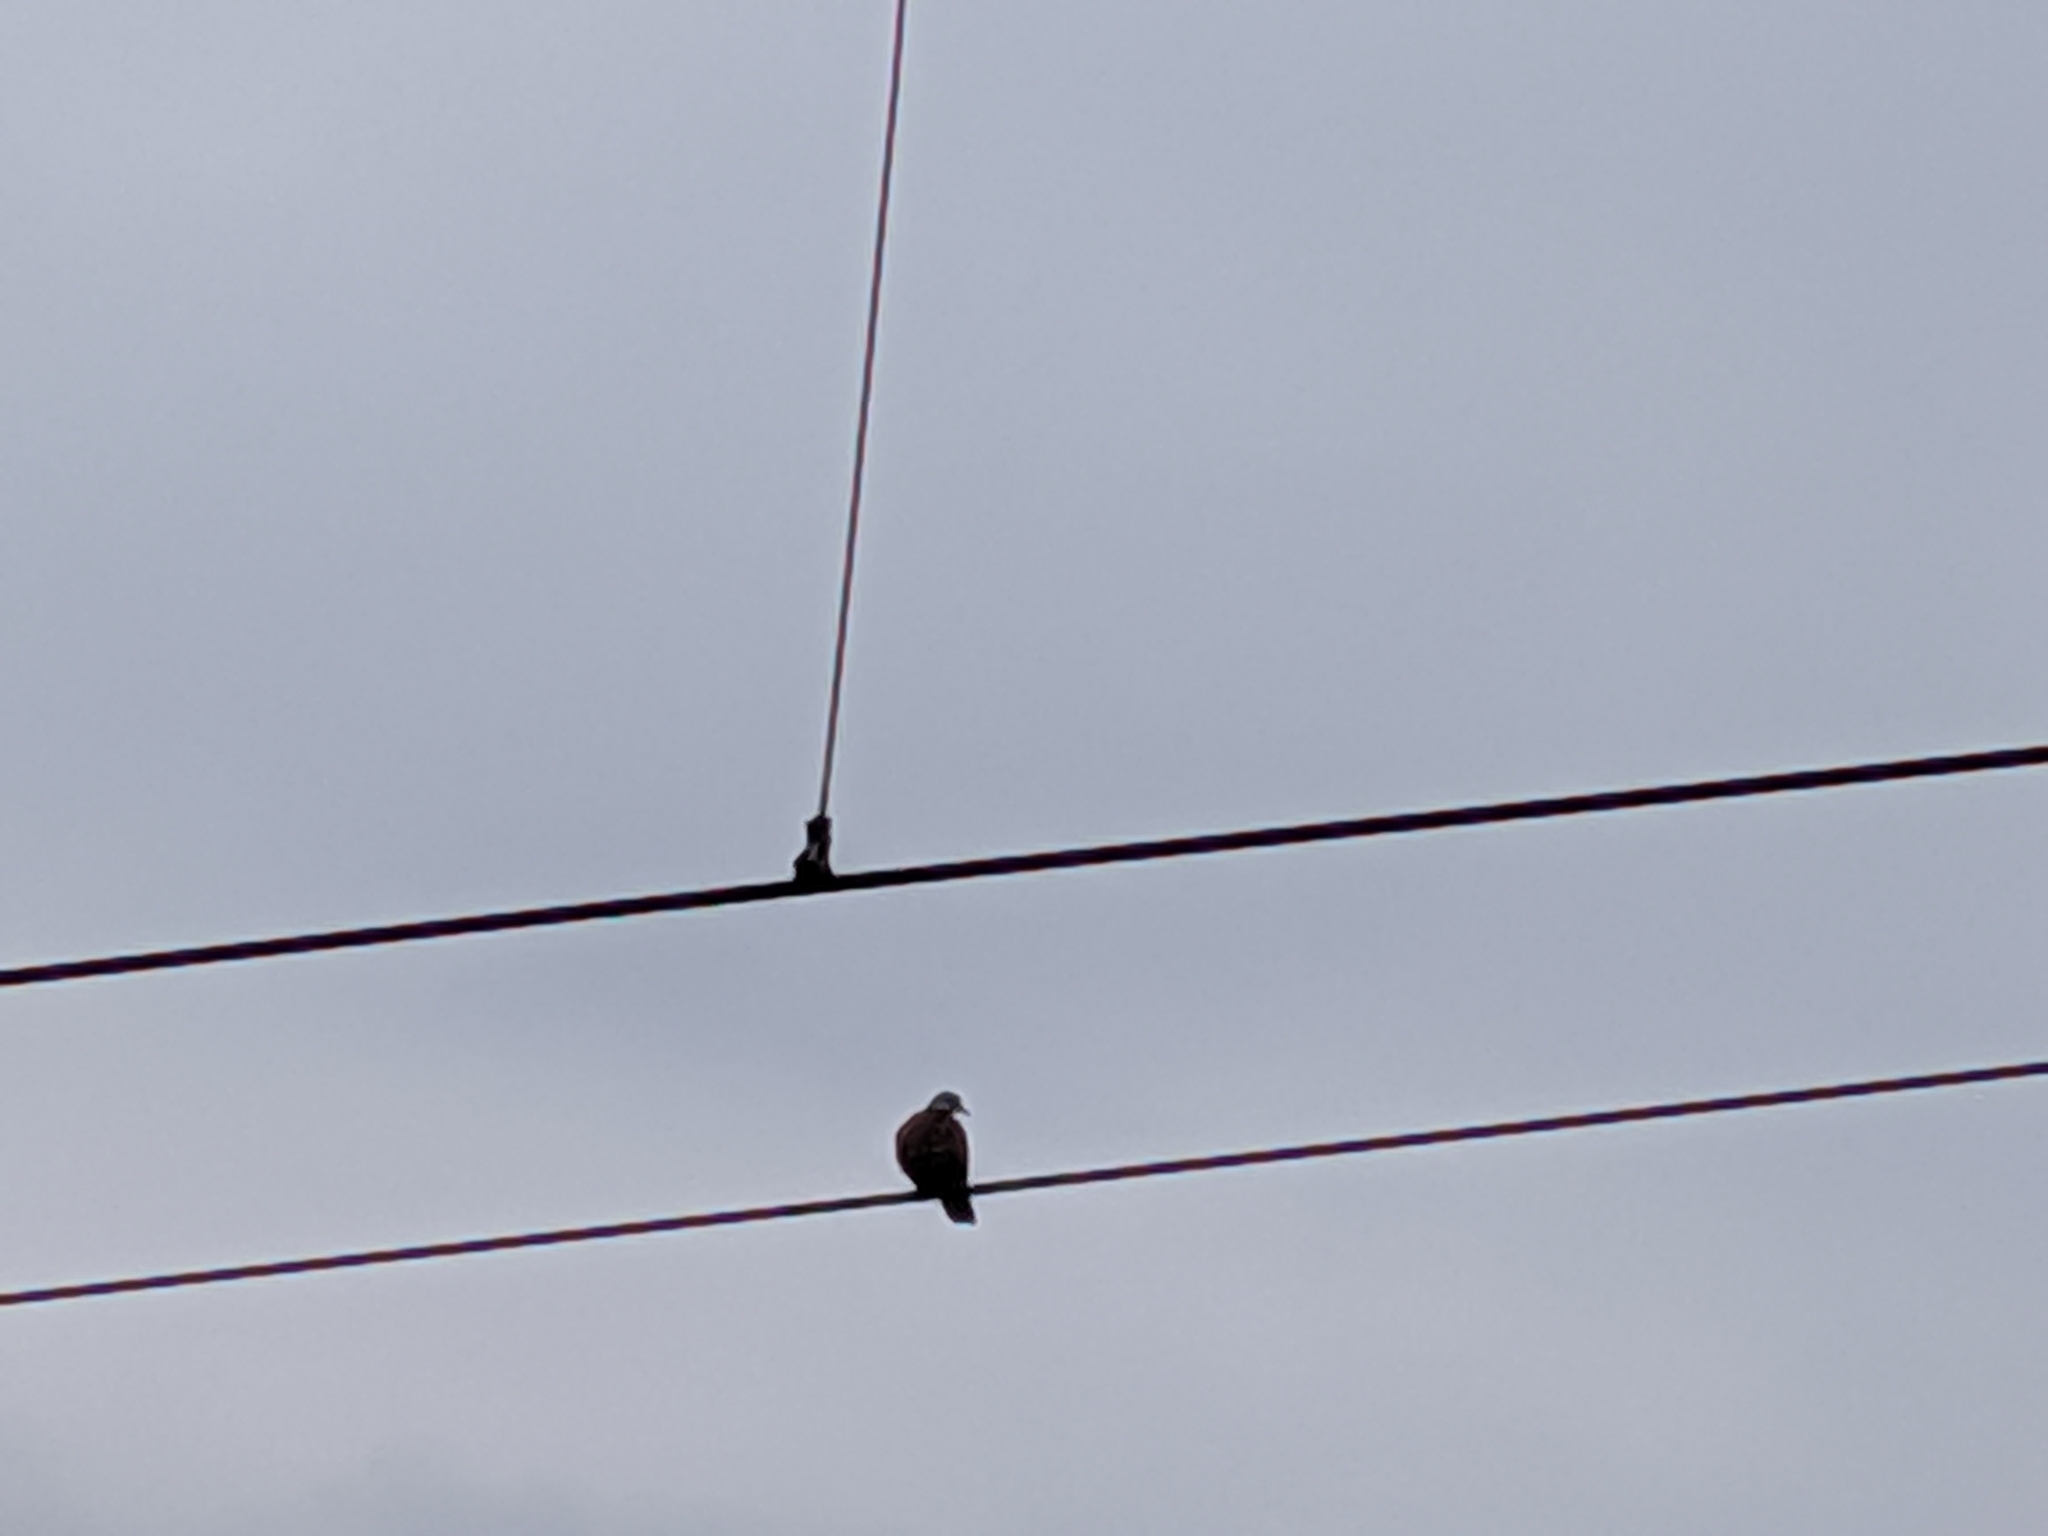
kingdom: Animalia
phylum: Chordata
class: Aves
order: Columbiformes
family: Columbidae
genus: Streptopelia
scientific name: Streptopelia tranquebarica
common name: Red turtle dove
